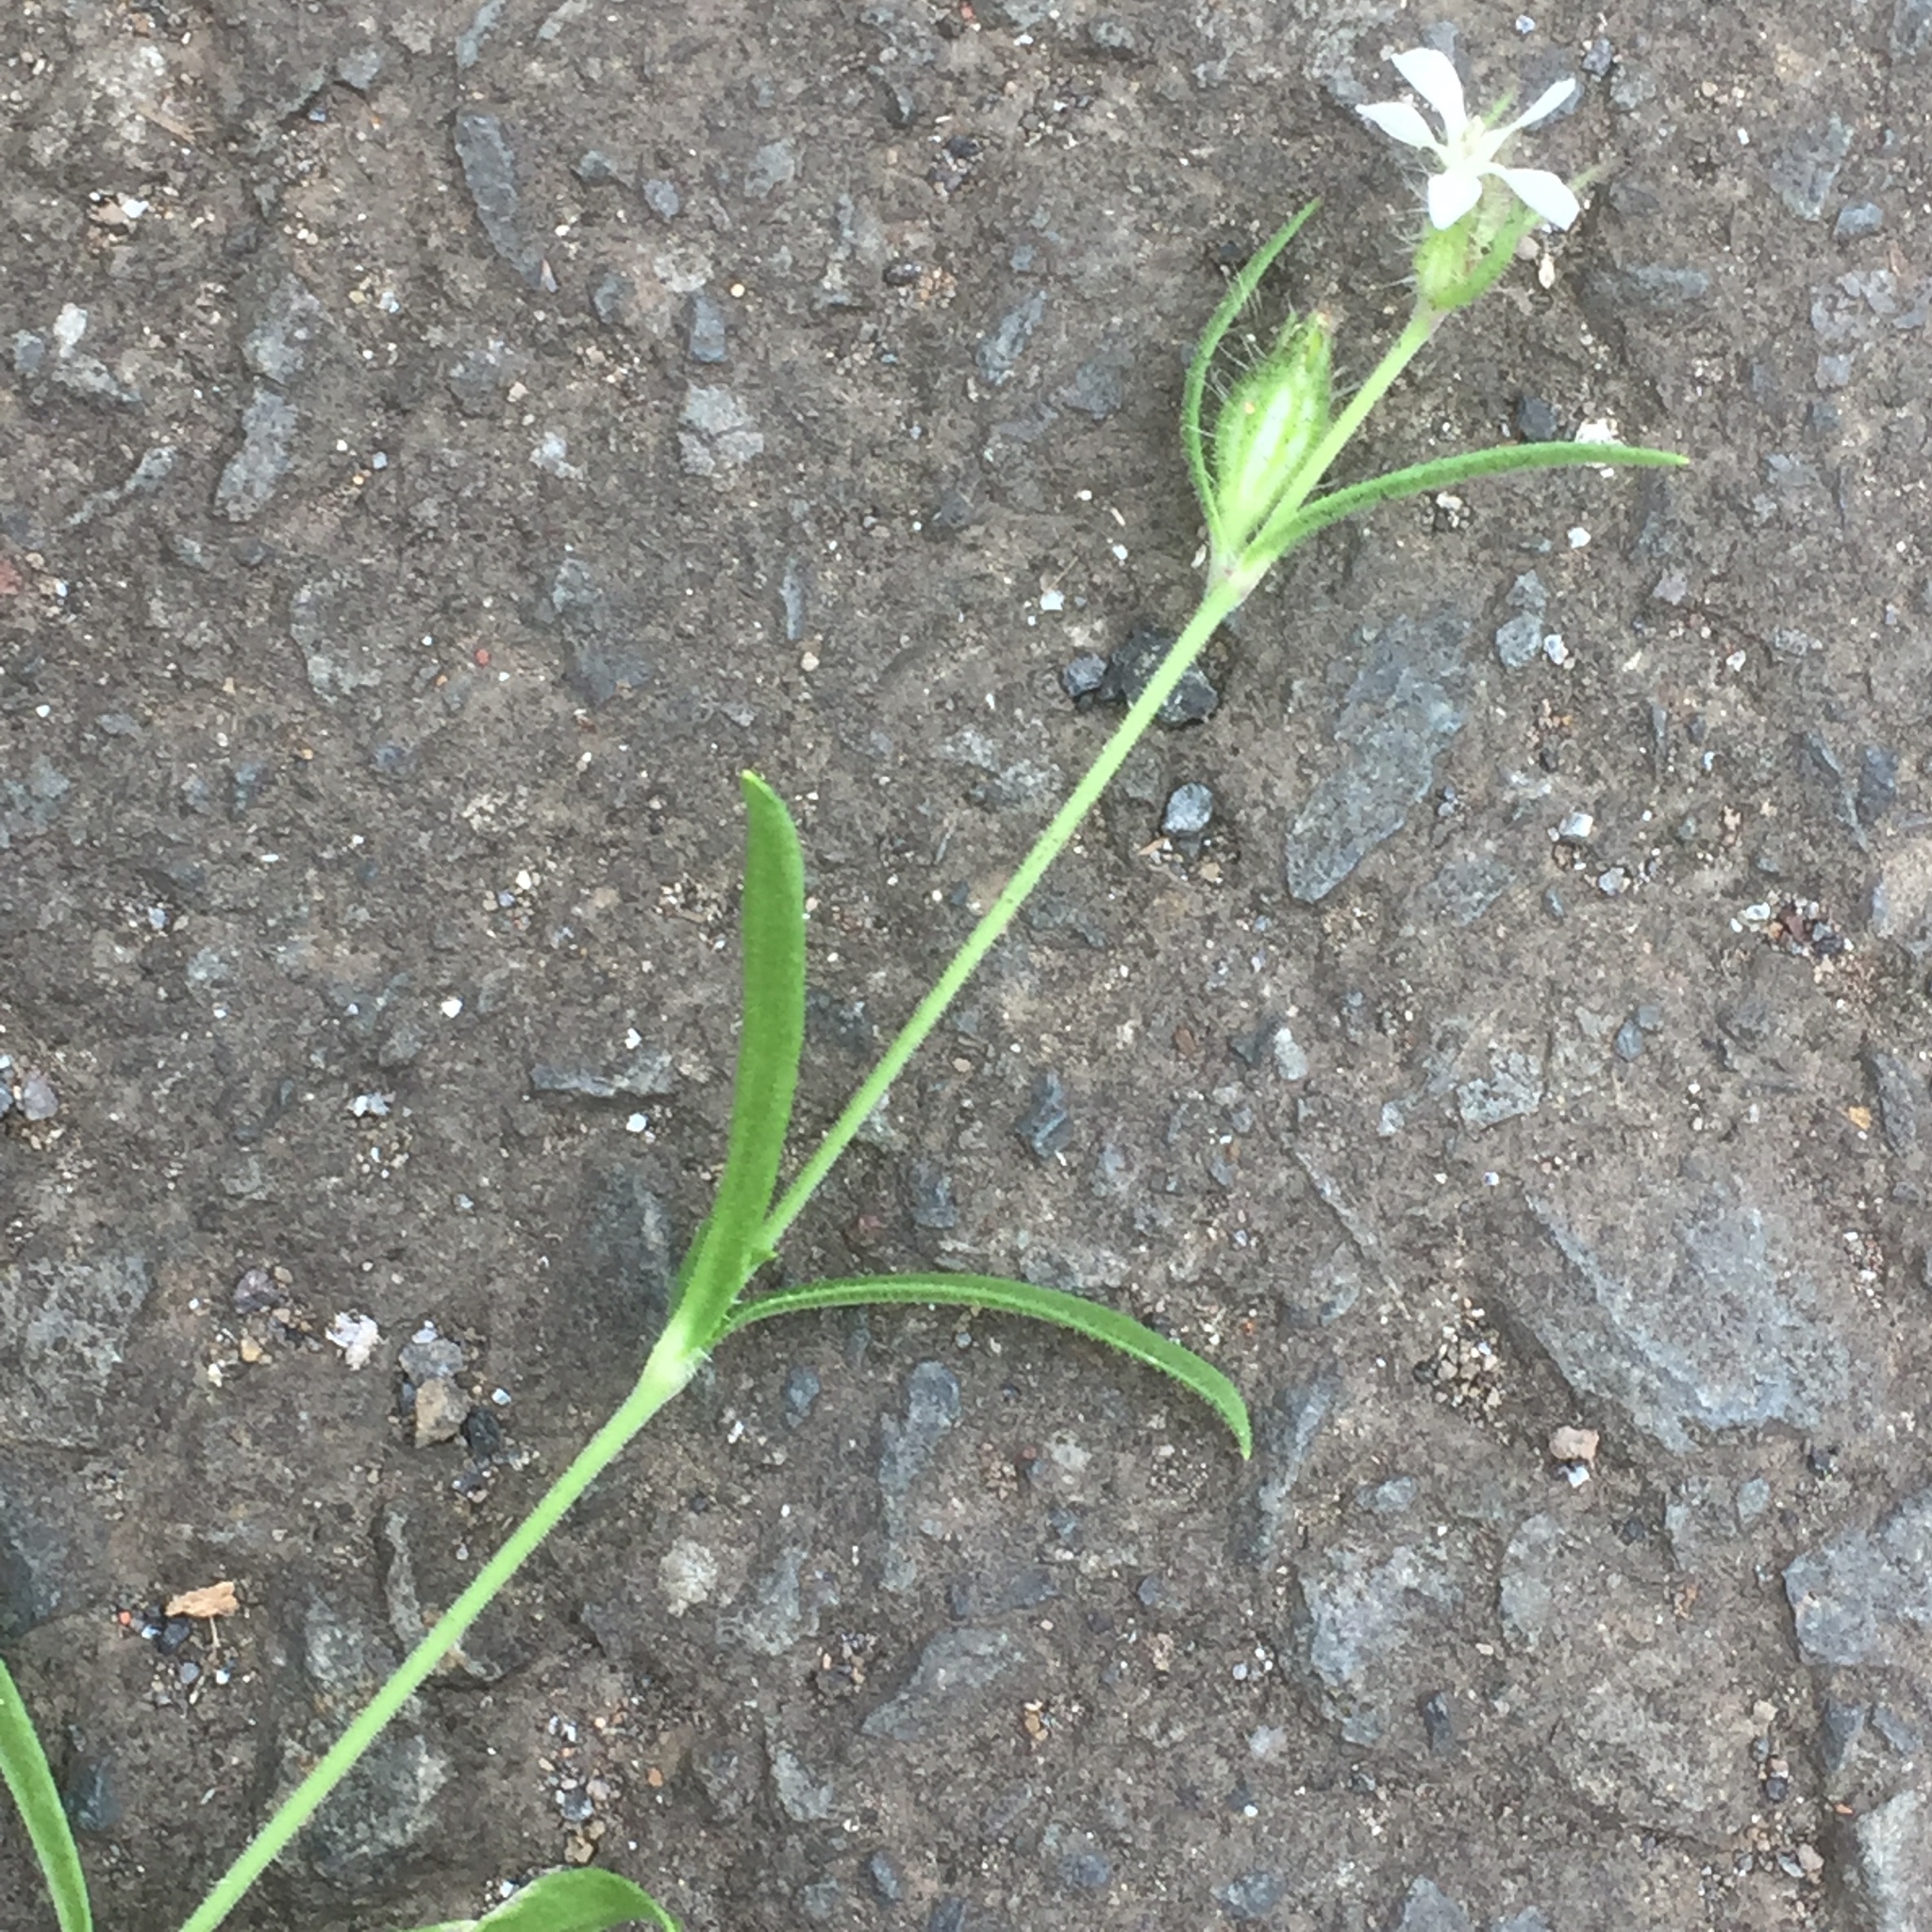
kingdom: Plantae
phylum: Tracheophyta
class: Magnoliopsida
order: Caryophyllales
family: Caryophyllaceae
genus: Silene
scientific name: Silene gallica
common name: Small-flowered catchfly
